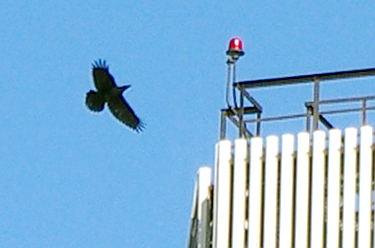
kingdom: Animalia
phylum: Chordata
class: Aves
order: Passeriformes
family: Corvidae
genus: Corvus
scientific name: Corvus corax
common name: Common raven
